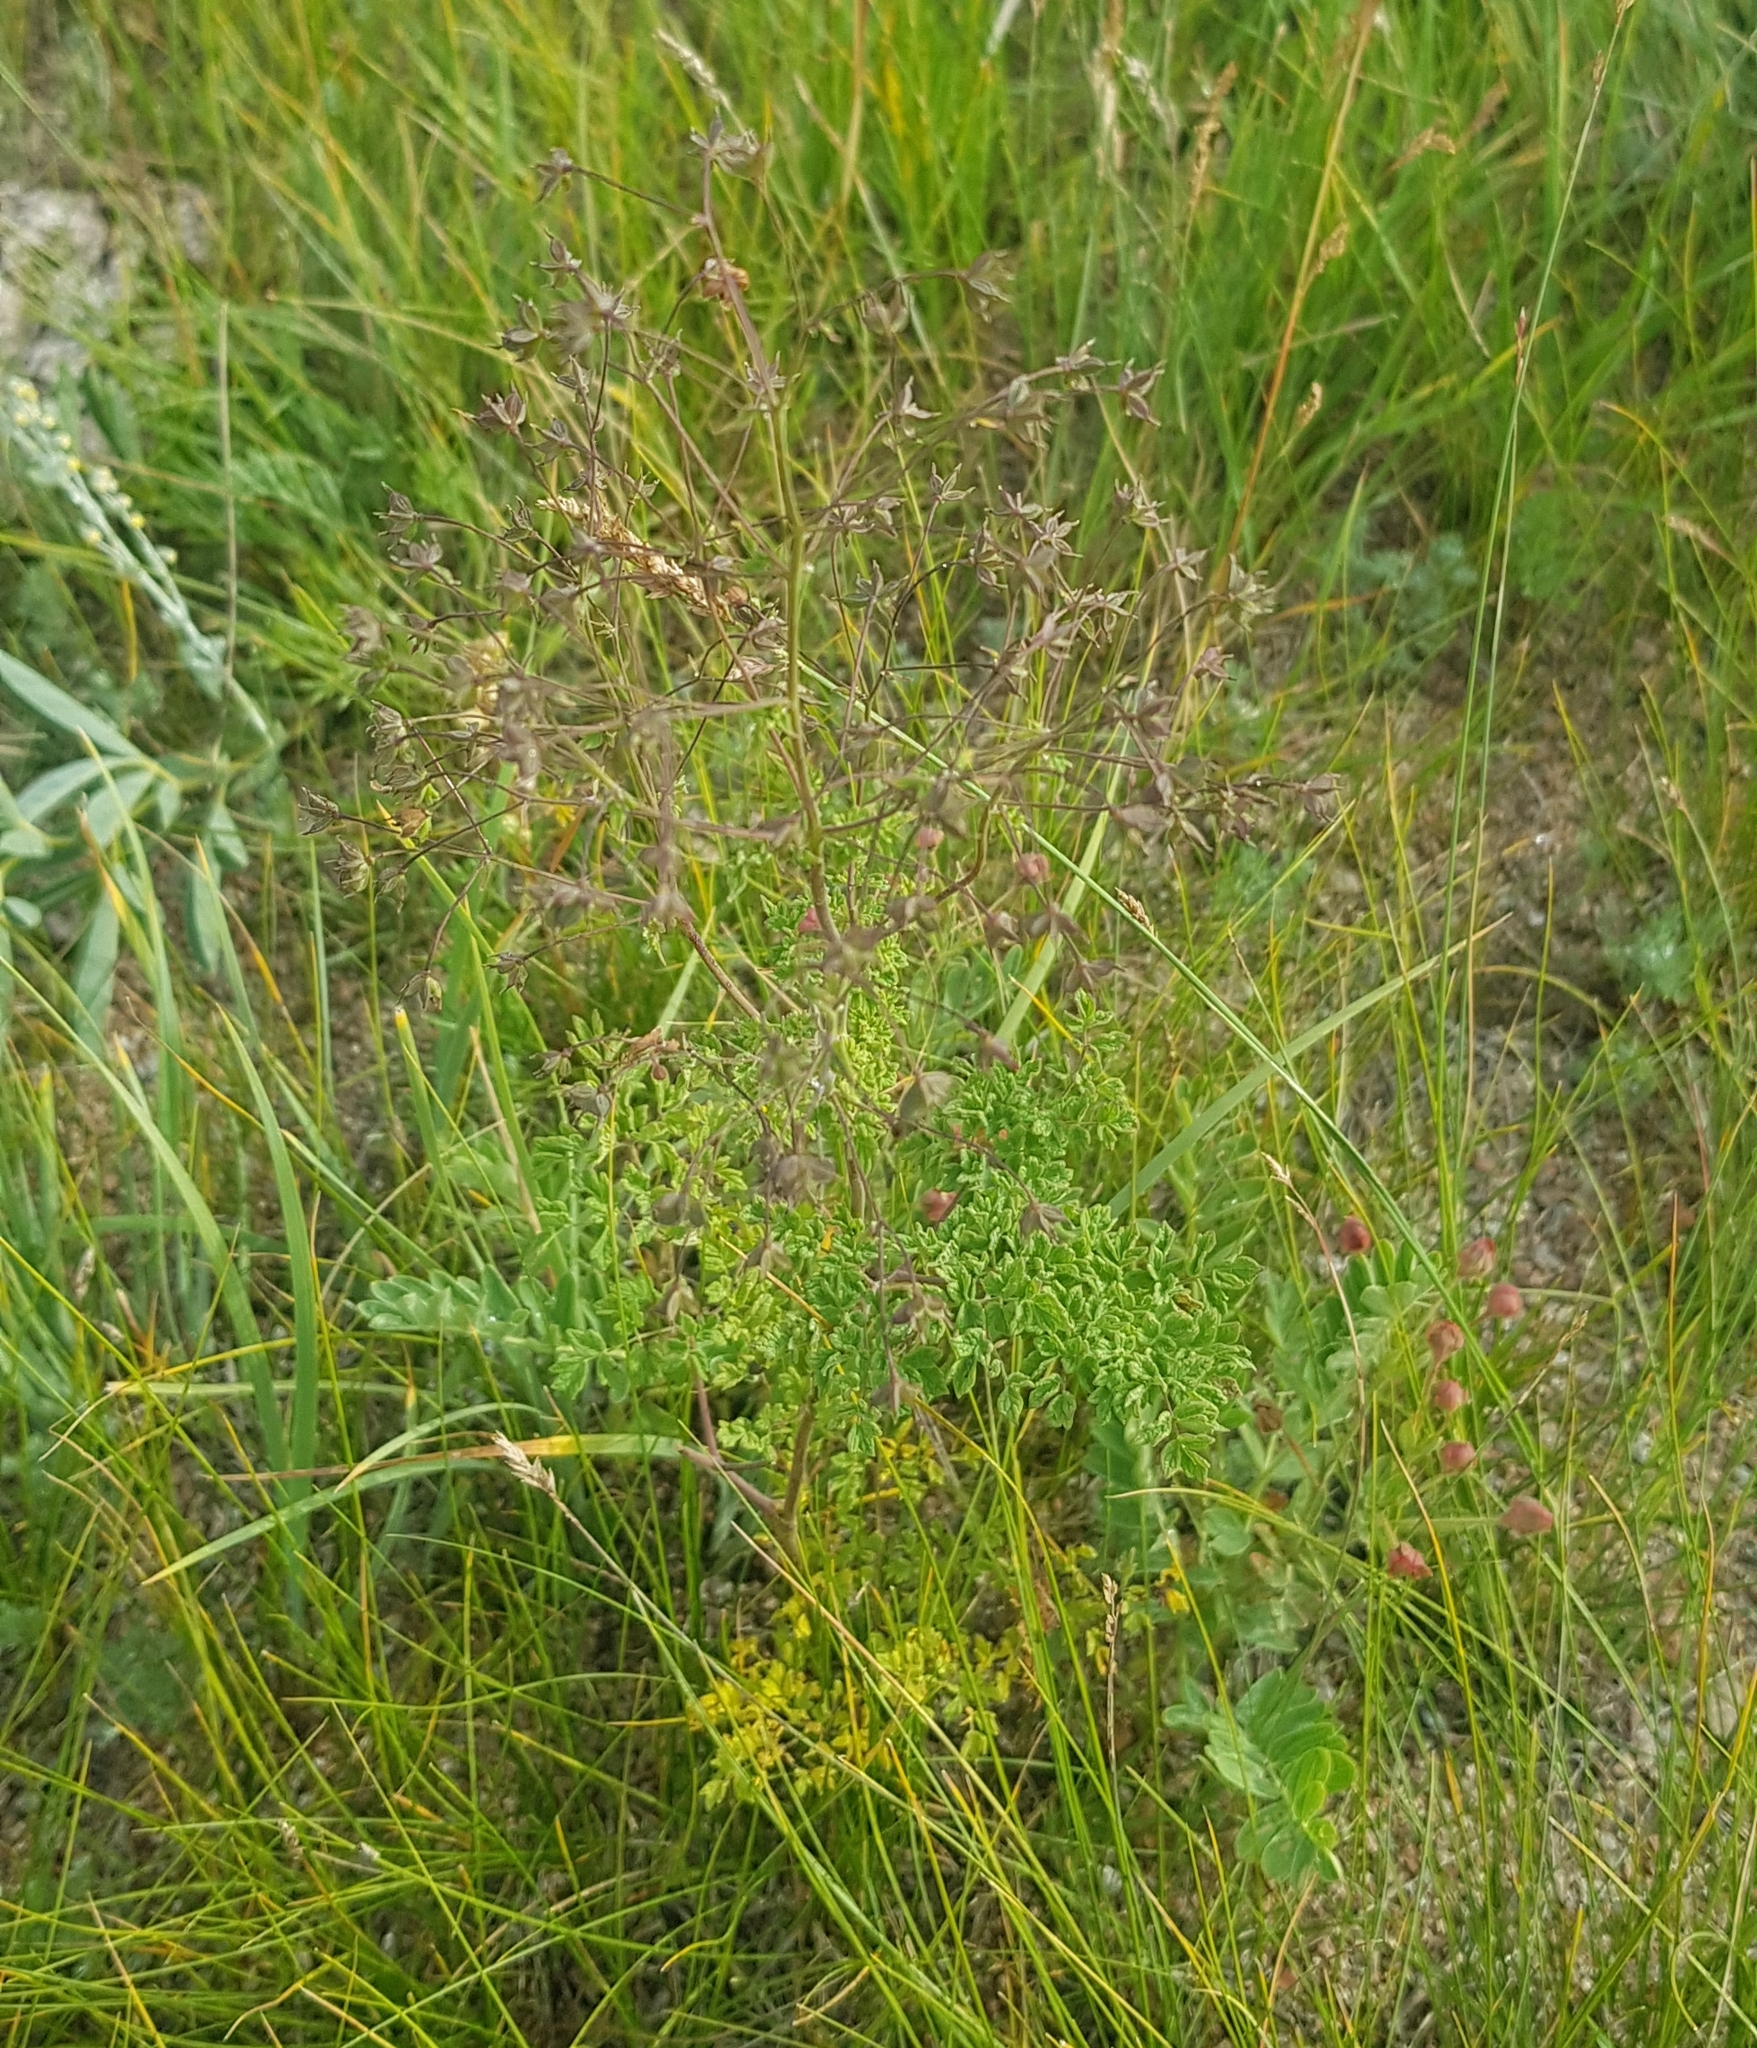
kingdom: Plantae
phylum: Tracheophyta
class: Magnoliopsida
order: Ranunculales
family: Ranunculaceae
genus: Thalictrum
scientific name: Thalictrum foetidum
